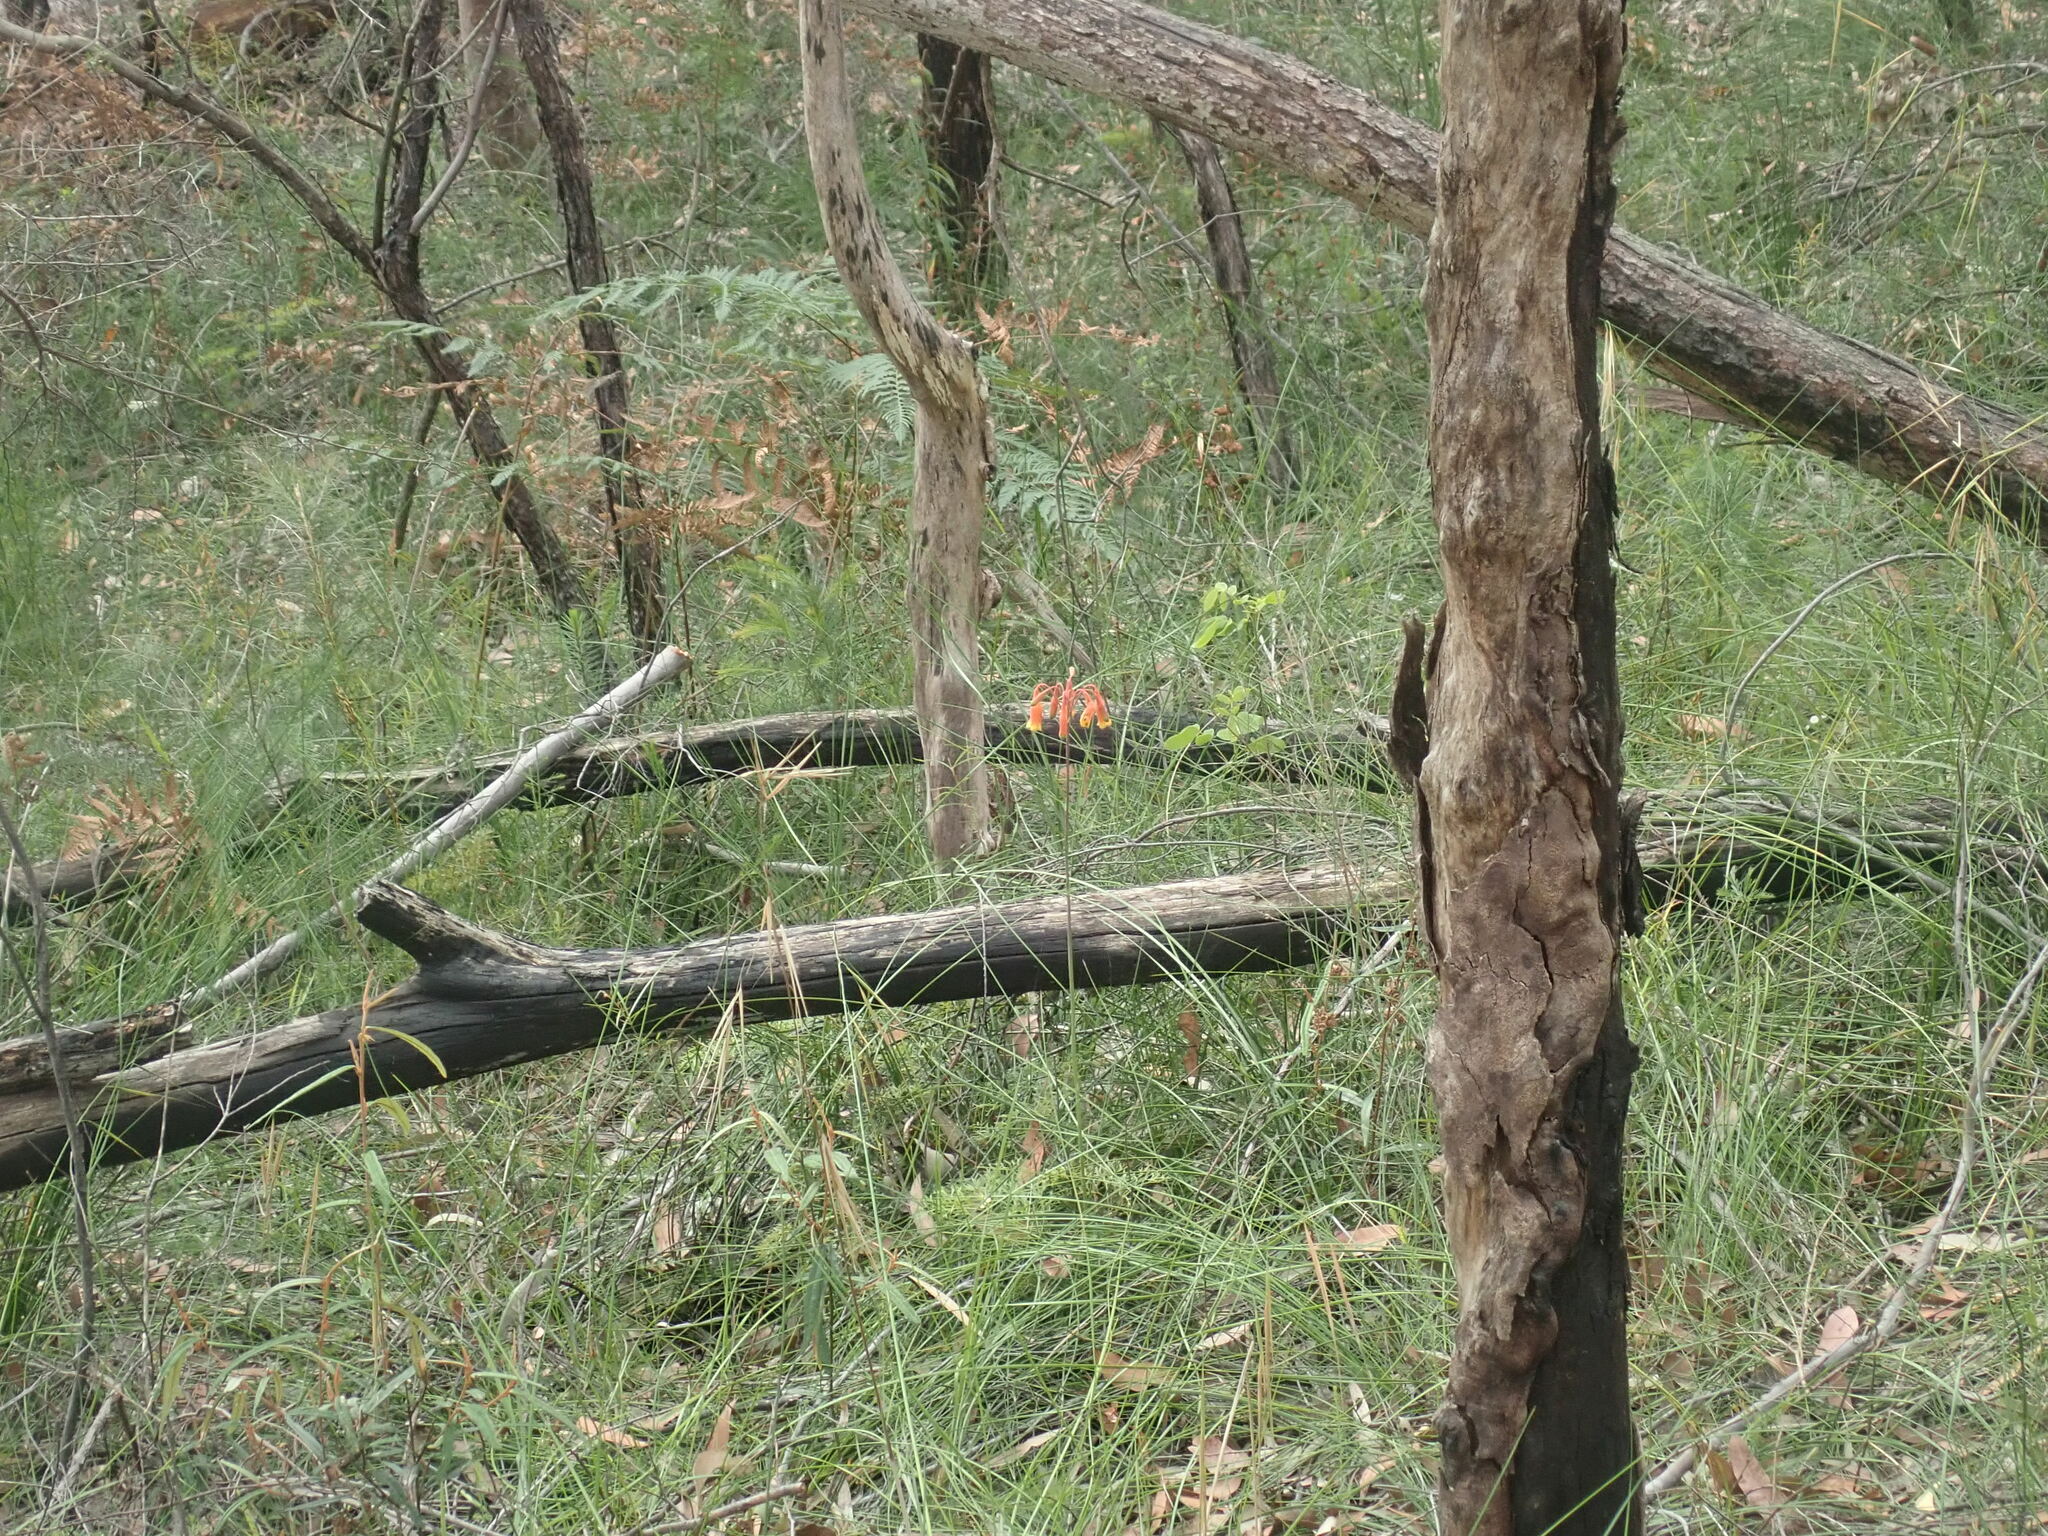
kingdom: Plantae
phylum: Tracheophyta
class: Liliopsida
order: Asparagales
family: Blandfordiaceae
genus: Blandfordia
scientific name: Blandfordia nobilis
